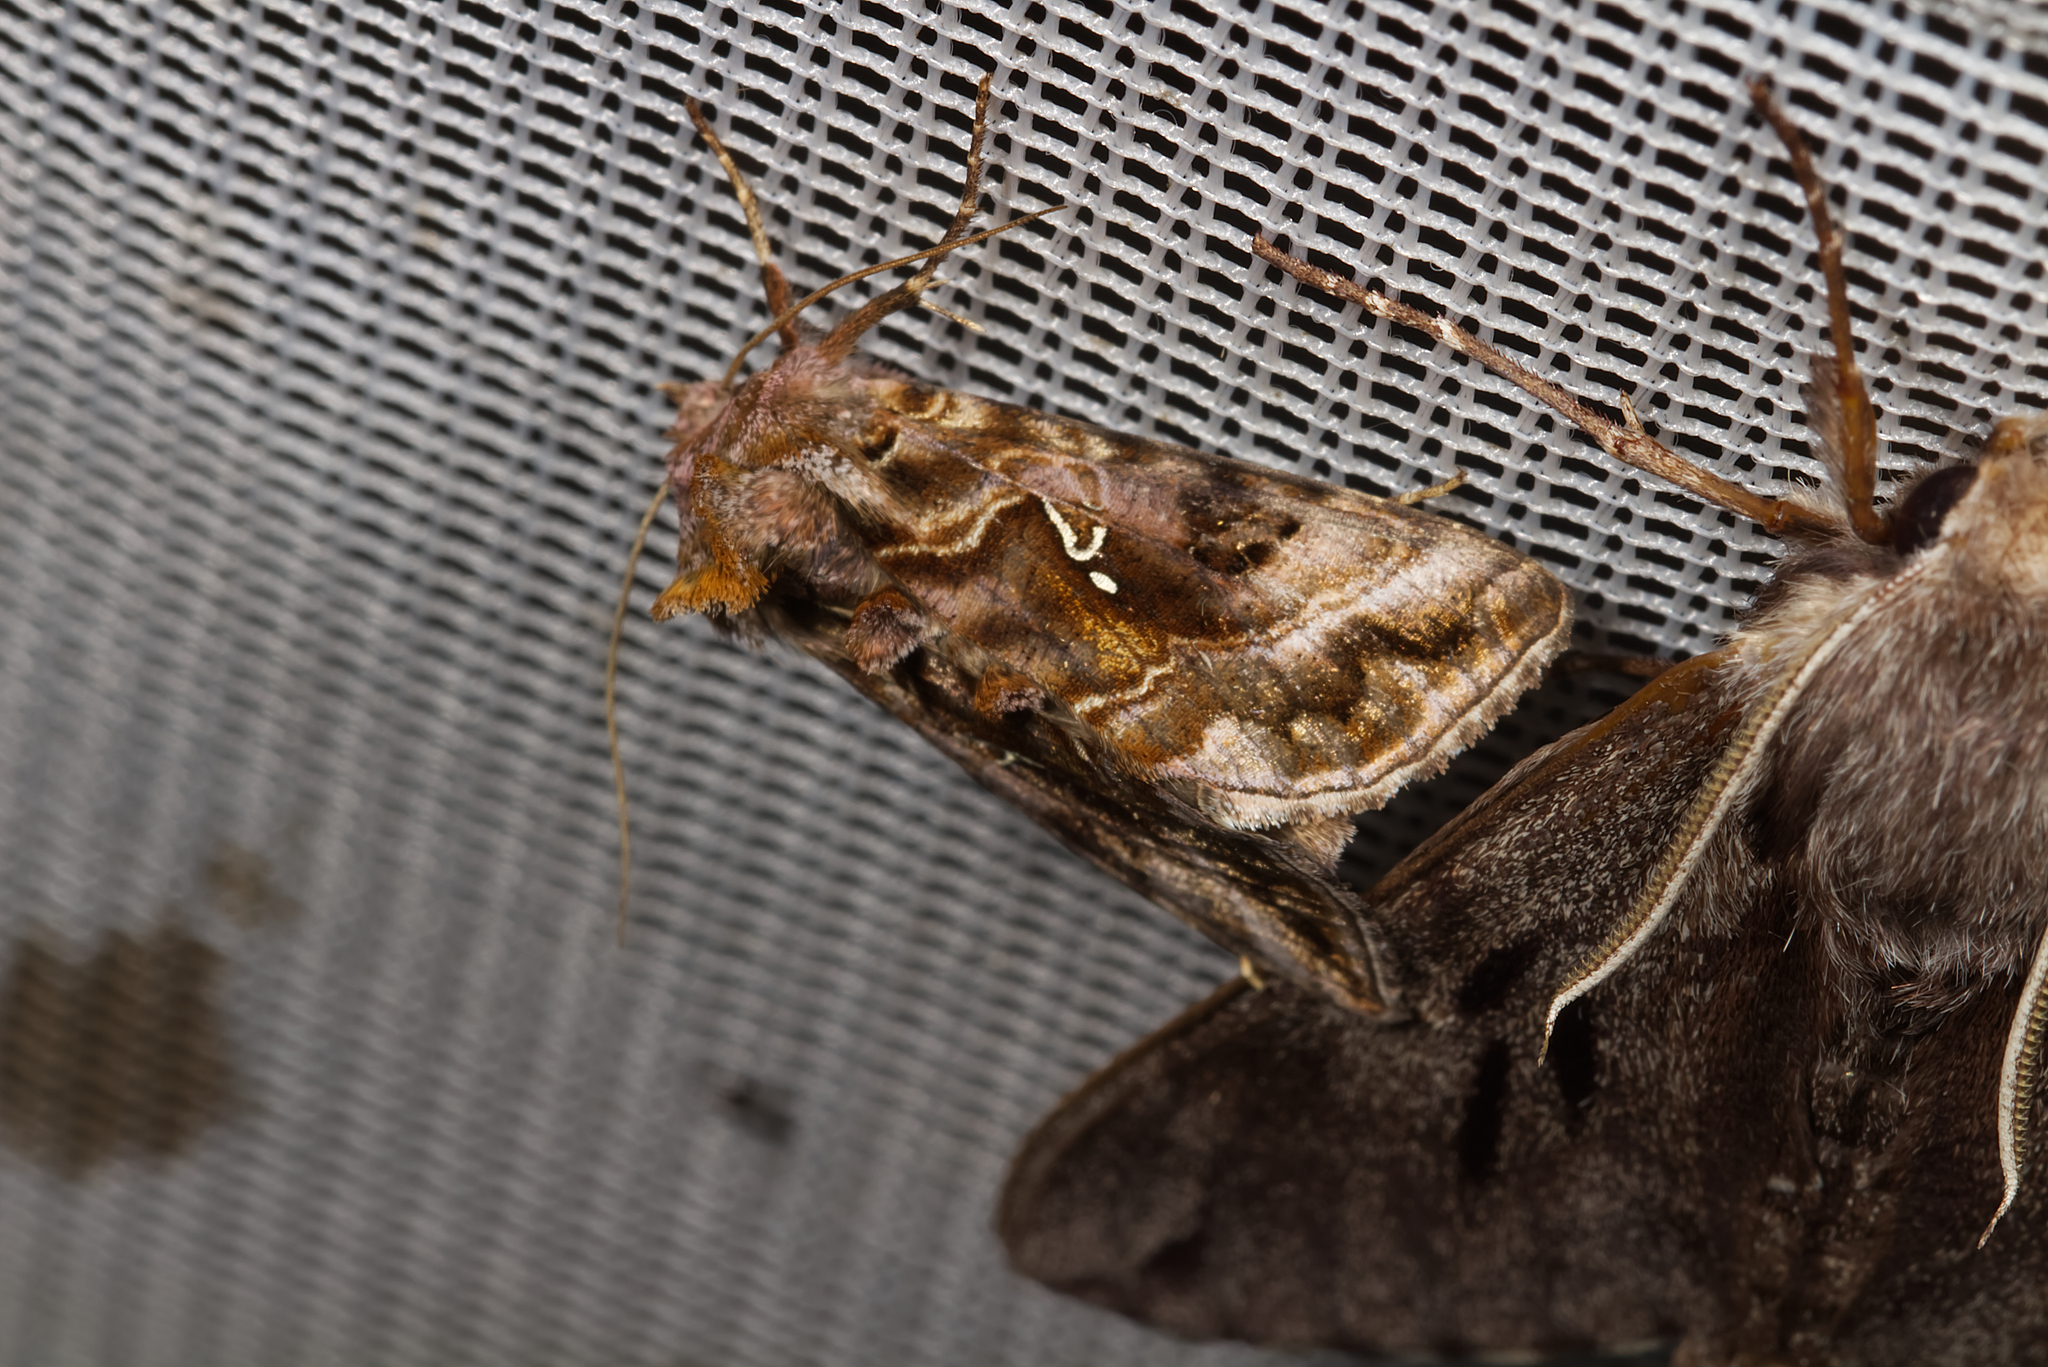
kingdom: Animalia
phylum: Arthropoda
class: Insecta
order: Lepidoptera
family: Noctuidae
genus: Autographa
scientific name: Autographa pulchrina
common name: Beautiful golden y
